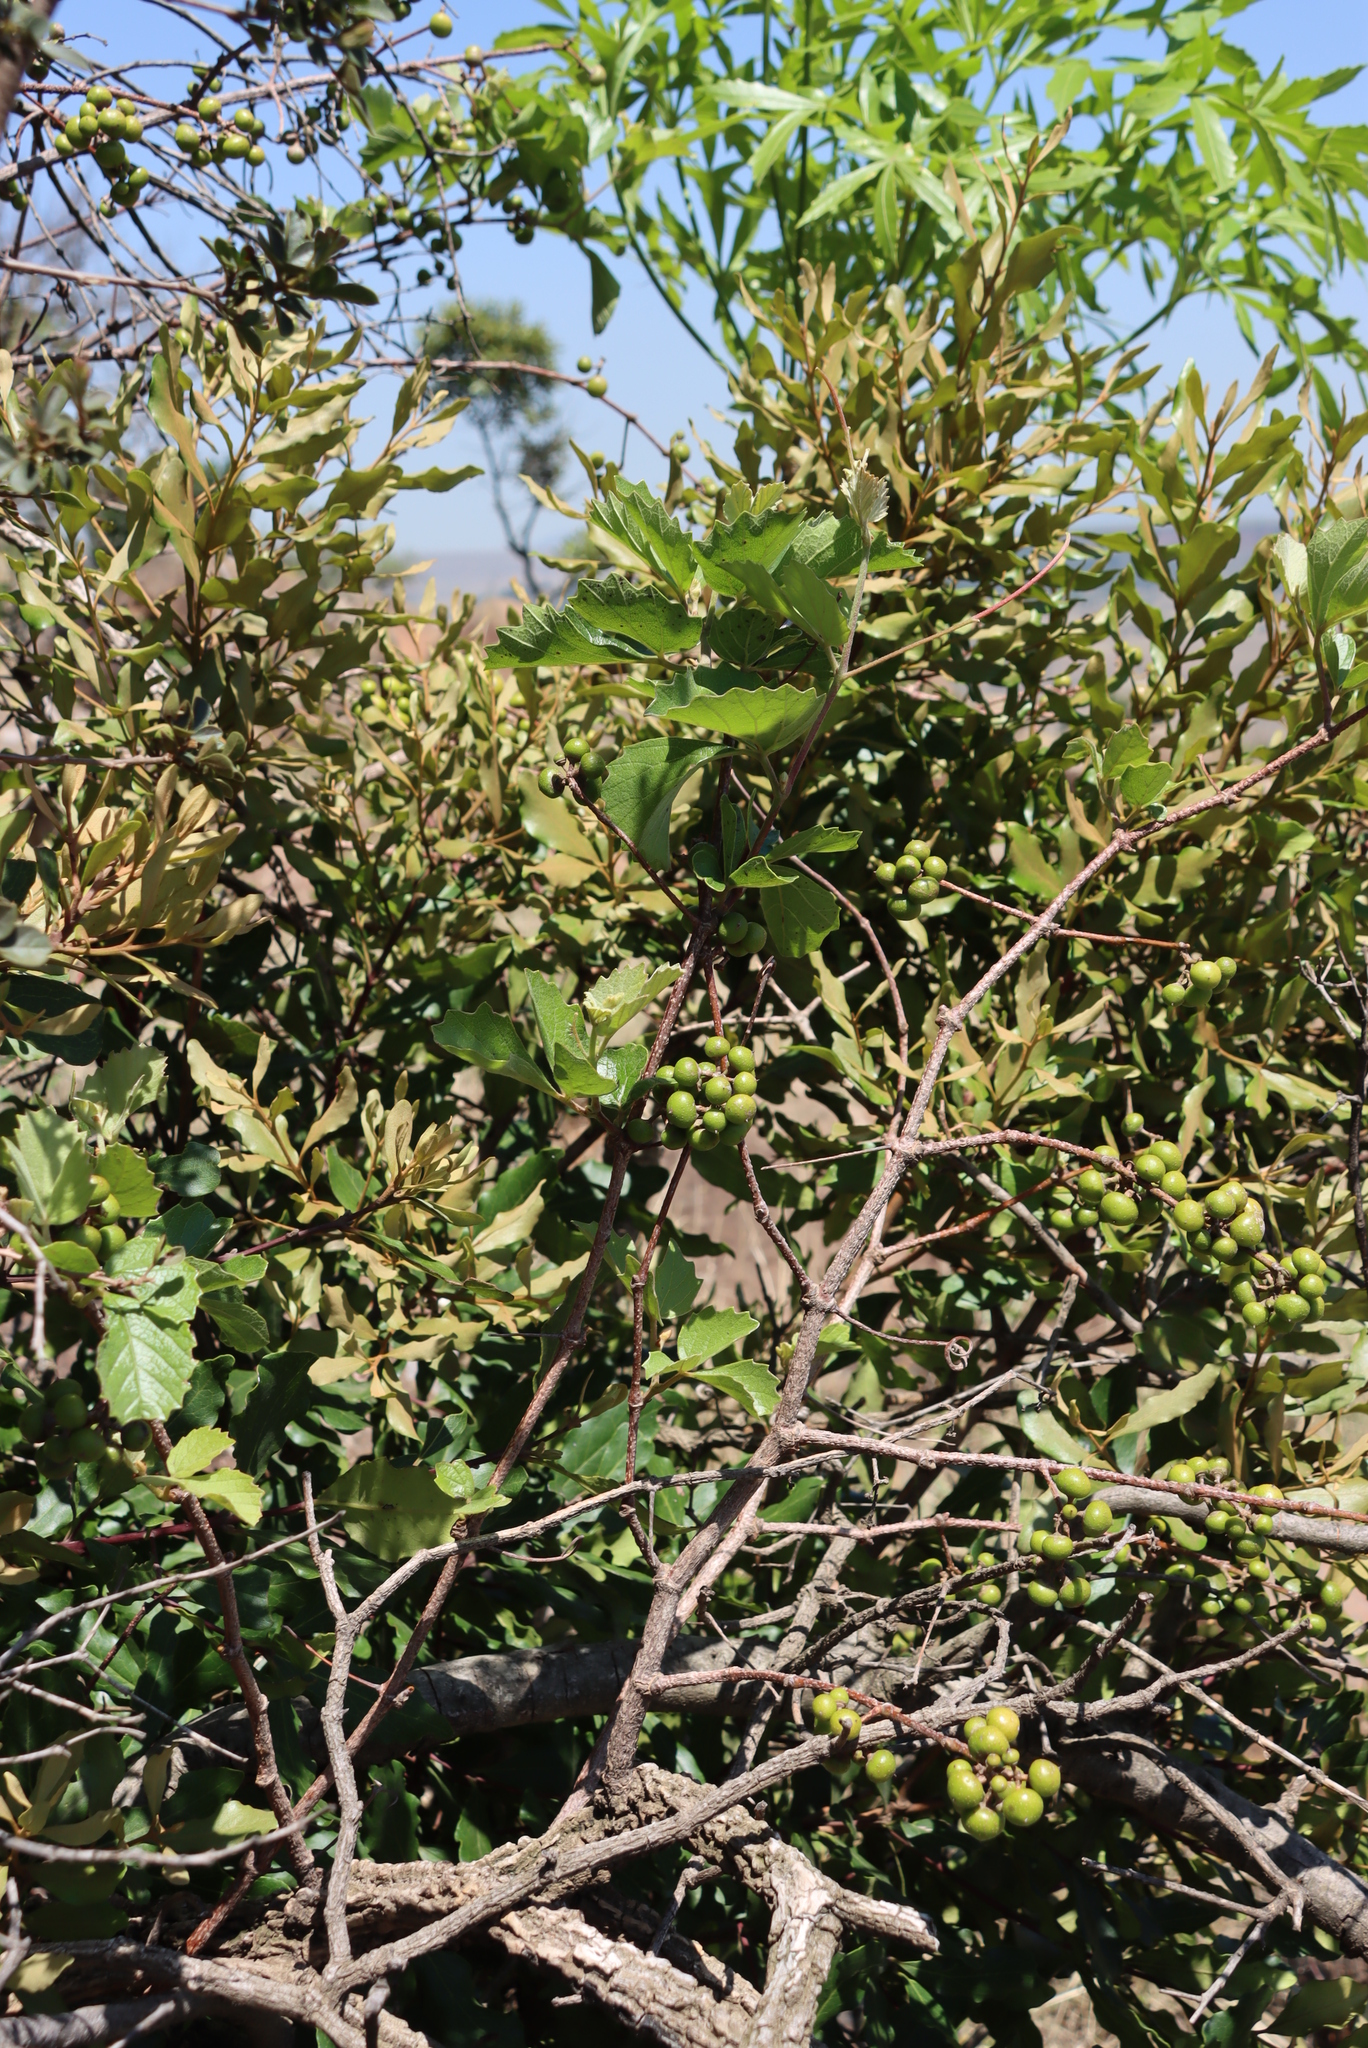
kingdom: Plantae
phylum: Tracheophyta
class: Magnoliopsida
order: Vitales
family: Vitaceae
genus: Rhoicissus
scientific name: Rhoicissus tridentata
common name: Common forest grape
